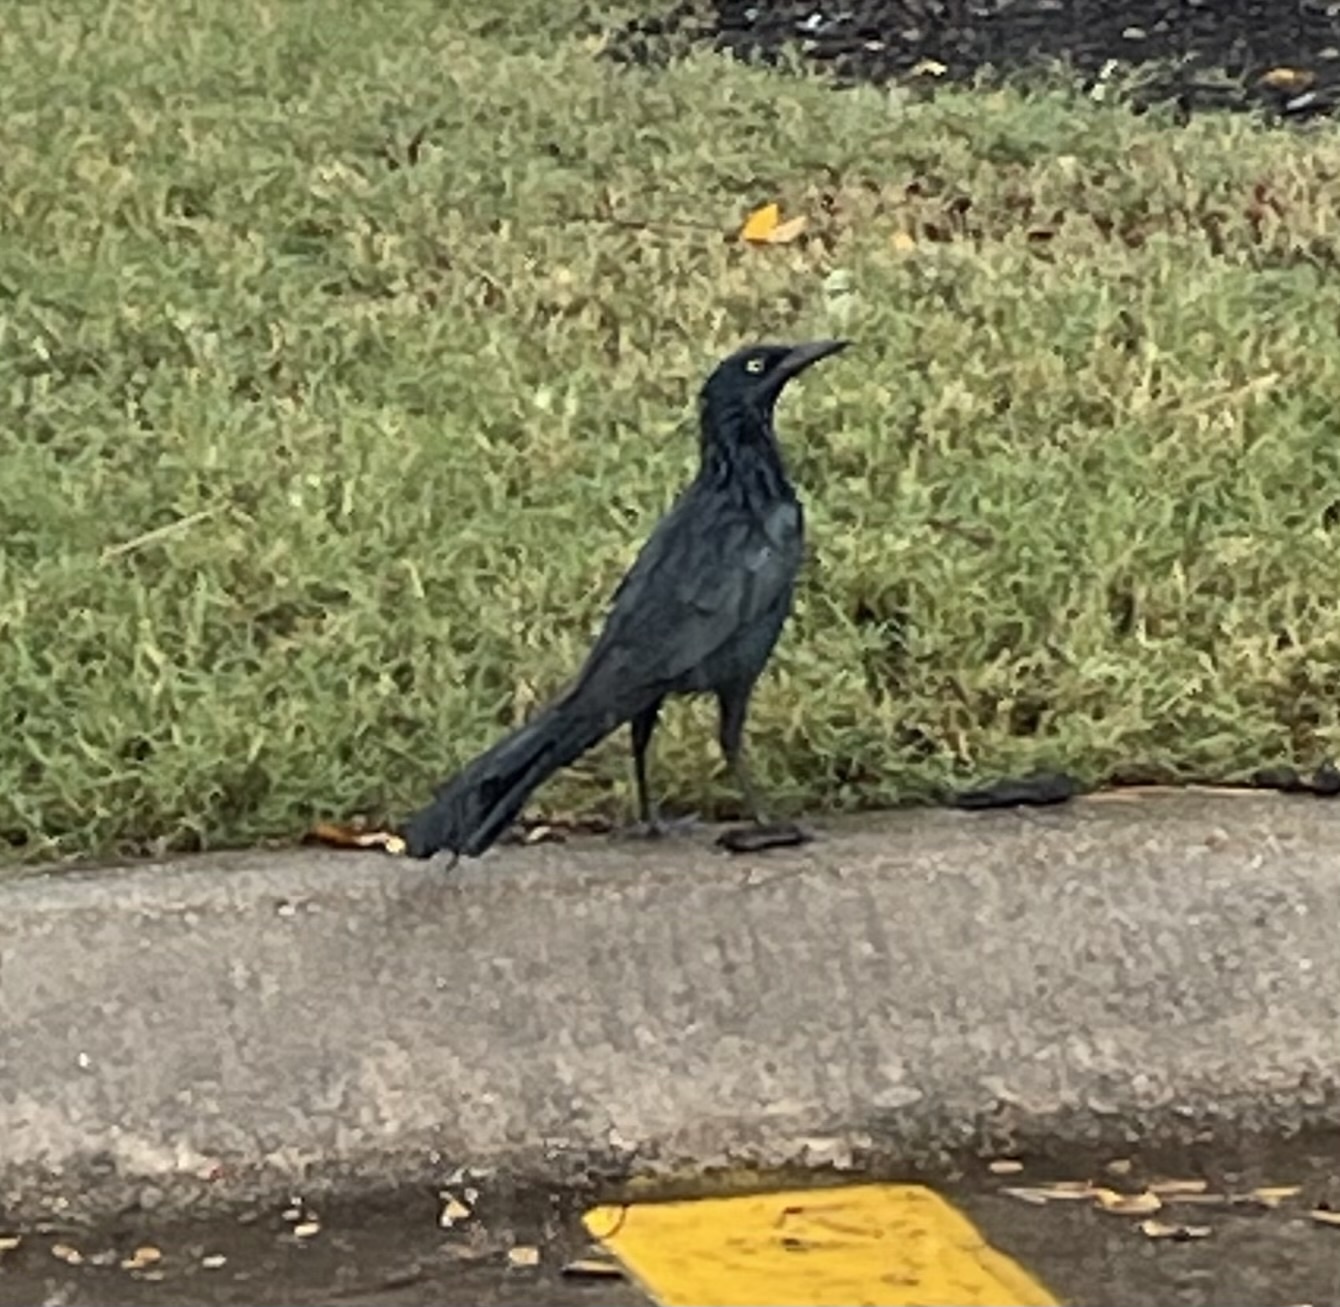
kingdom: Animalia
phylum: Chordata
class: Aves
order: Passeriformes
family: Icteridae
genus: Quiscalus
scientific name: Quiscalus mexicanus
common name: Great-tailed grackle
